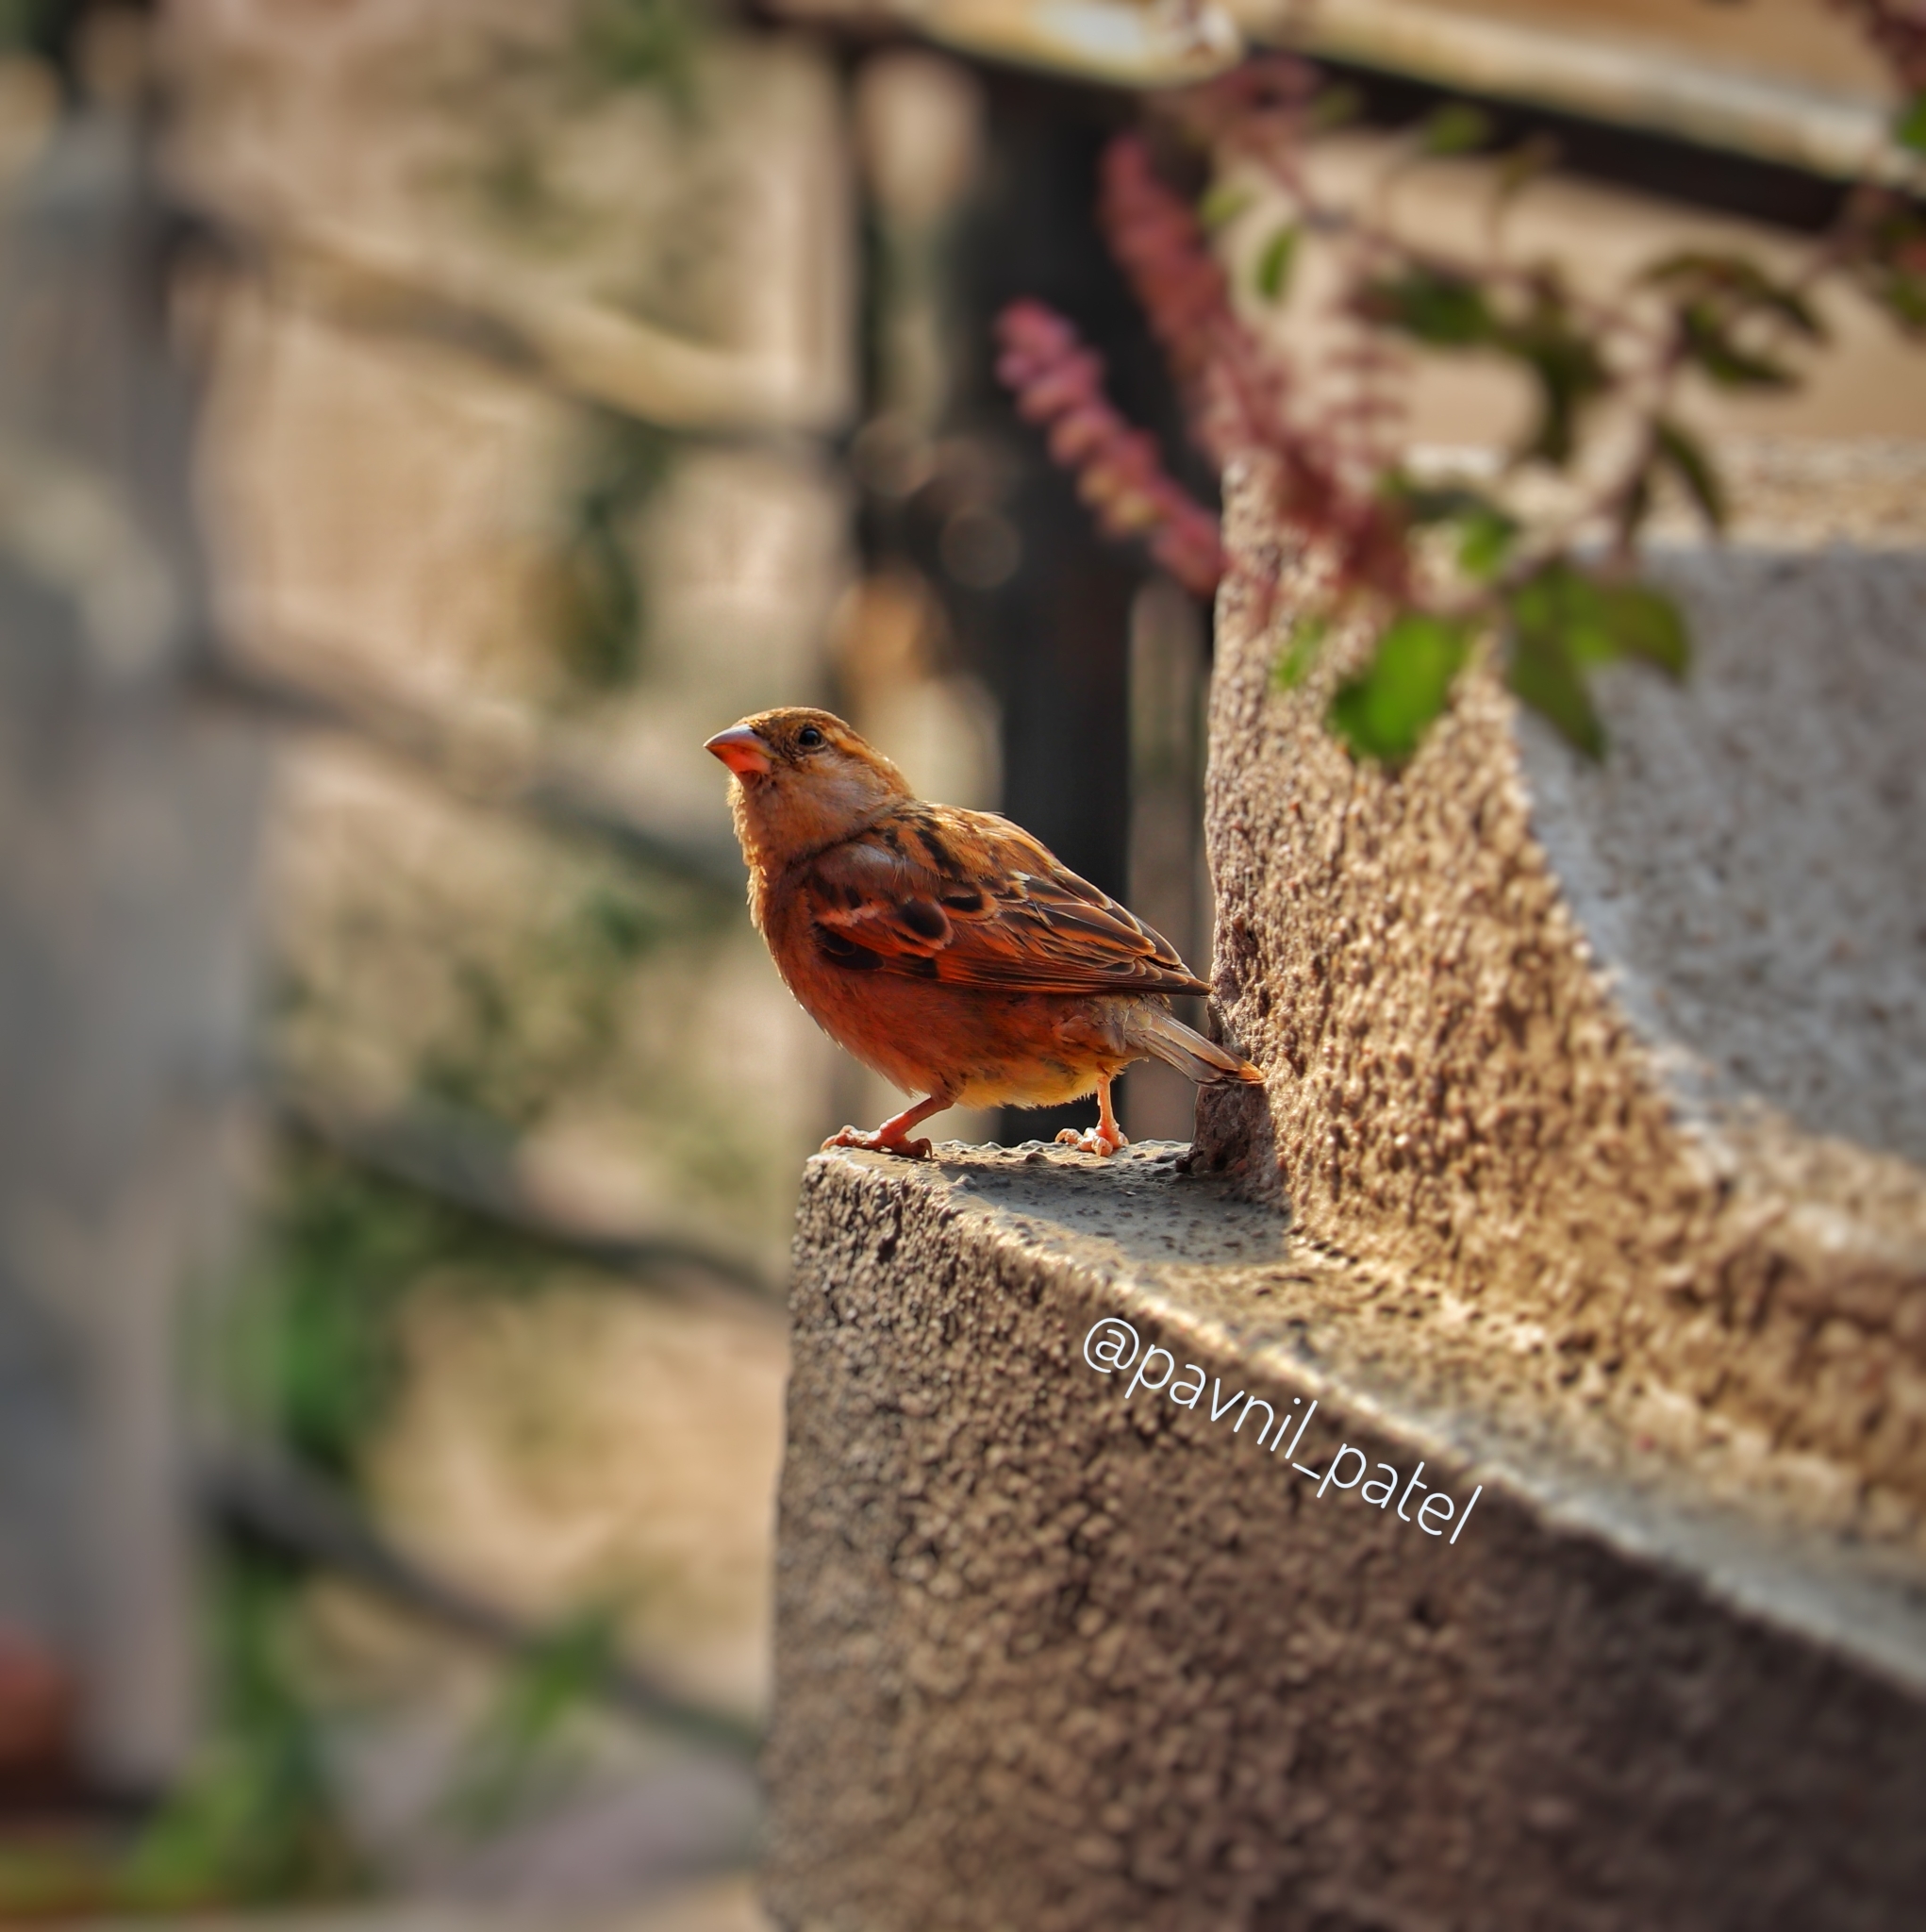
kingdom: Animalia
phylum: Chordata
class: Aves
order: Passeriformes
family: Passeridae
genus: Passer
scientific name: Passer domesticus
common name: House sparrow
